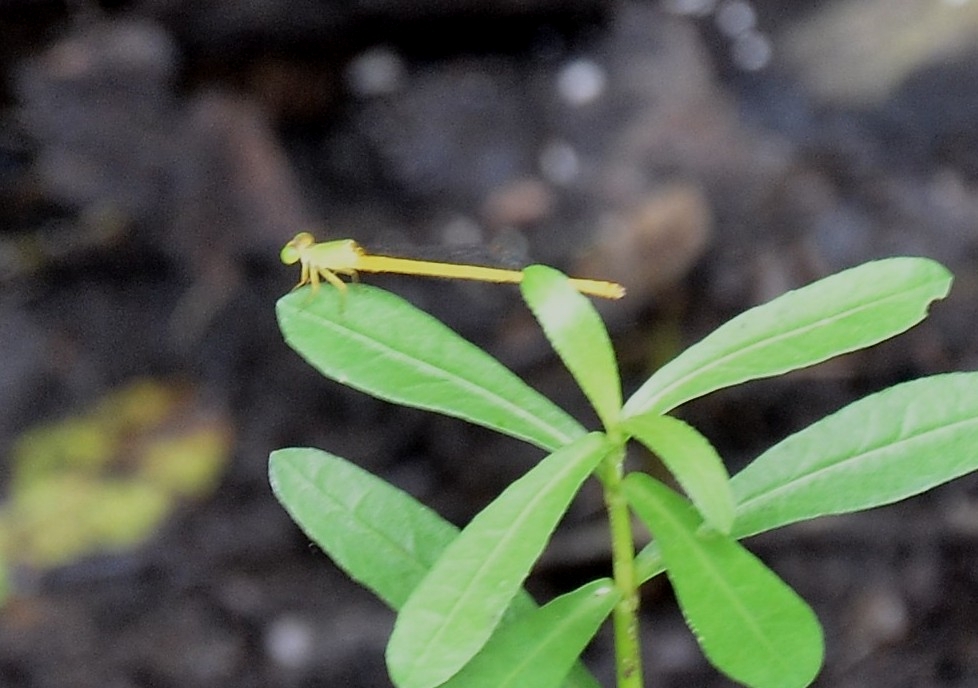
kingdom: Animalia
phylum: Arthropoda
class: Insecta
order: Odonata
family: Coenagrionidae
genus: Ceriagrion
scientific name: Ceriagrion coromandelianum
